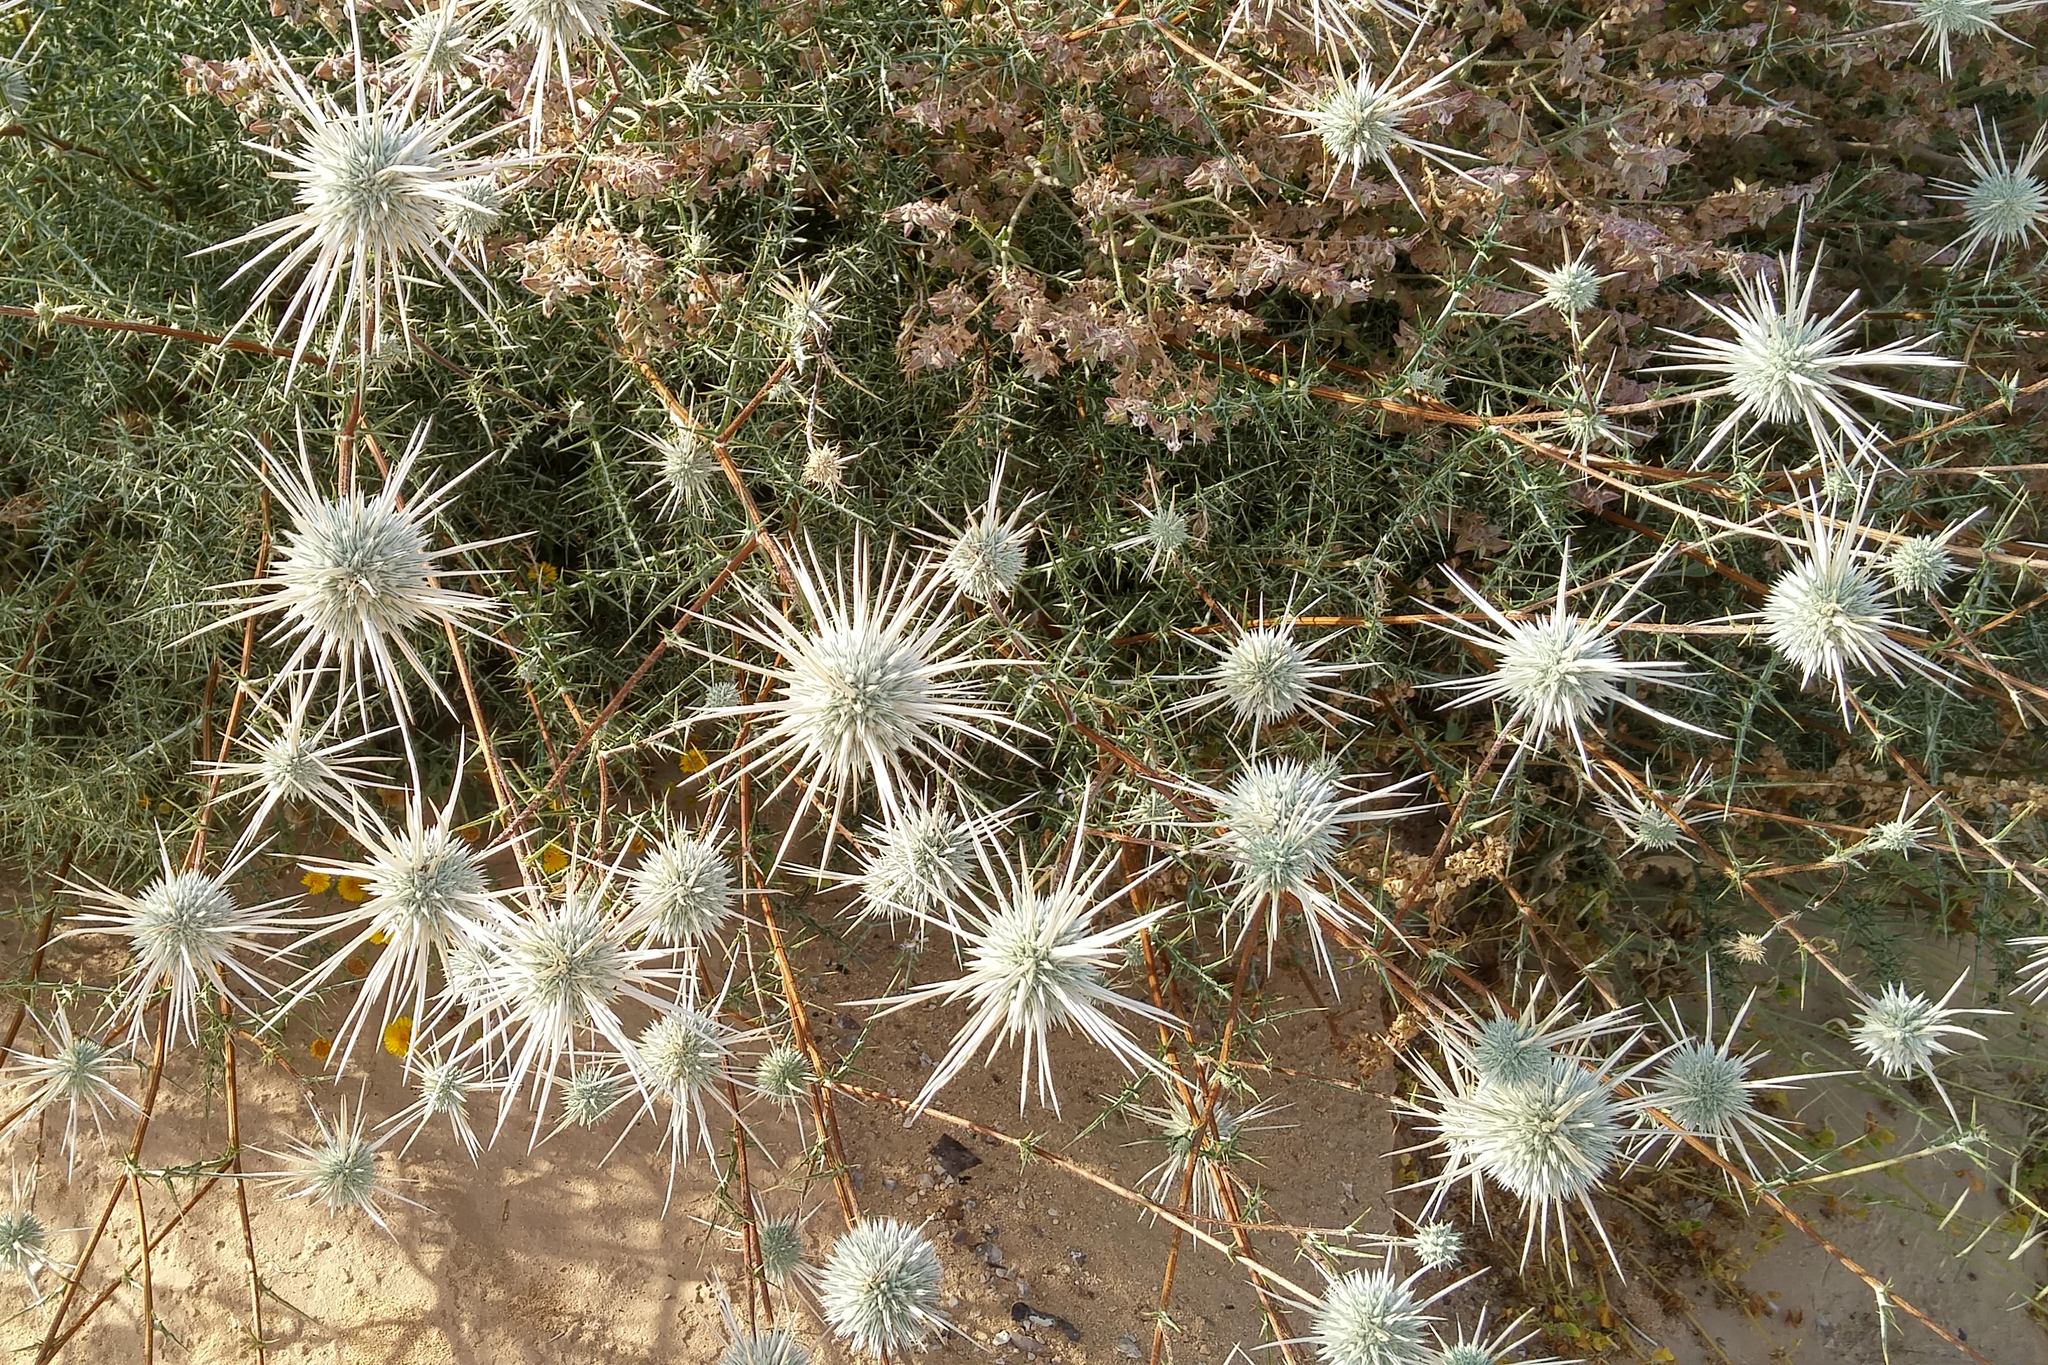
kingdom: Plantae
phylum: Tracheophyta
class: Magnoliopsida
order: Asterales
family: Asteraceae
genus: Echinops
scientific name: Echinops polyceras
